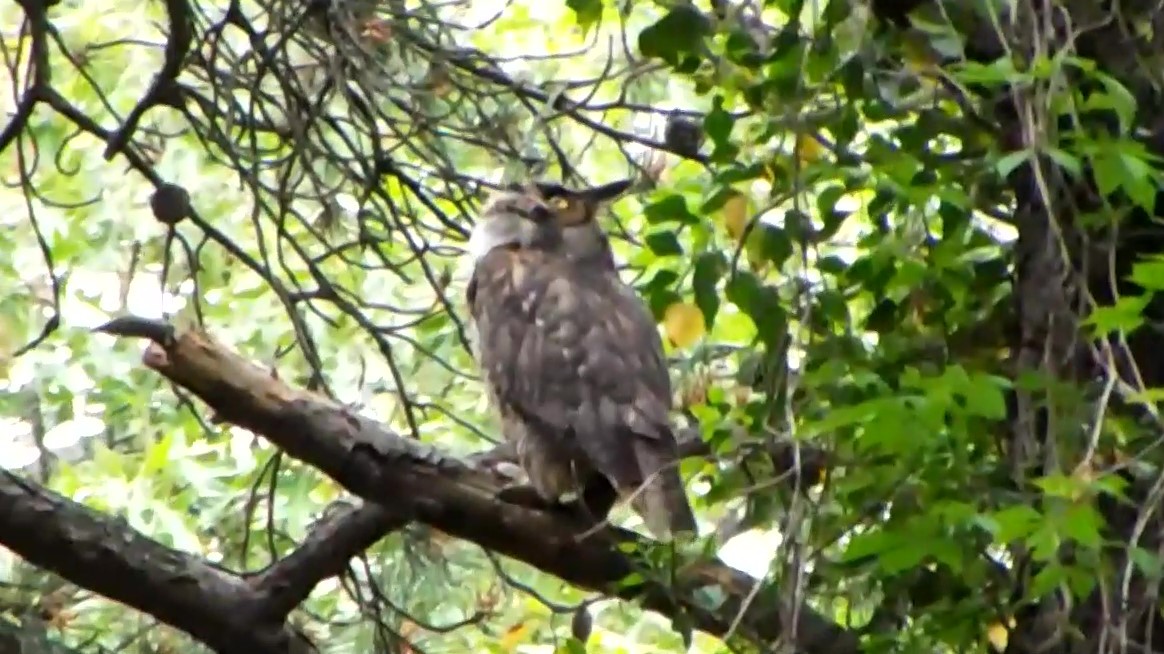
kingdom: Animalia
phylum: Chordata
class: Aves
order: Strigiformes
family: Strigidae
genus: Bubo
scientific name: Bubo virginianus
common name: Great horned owl
